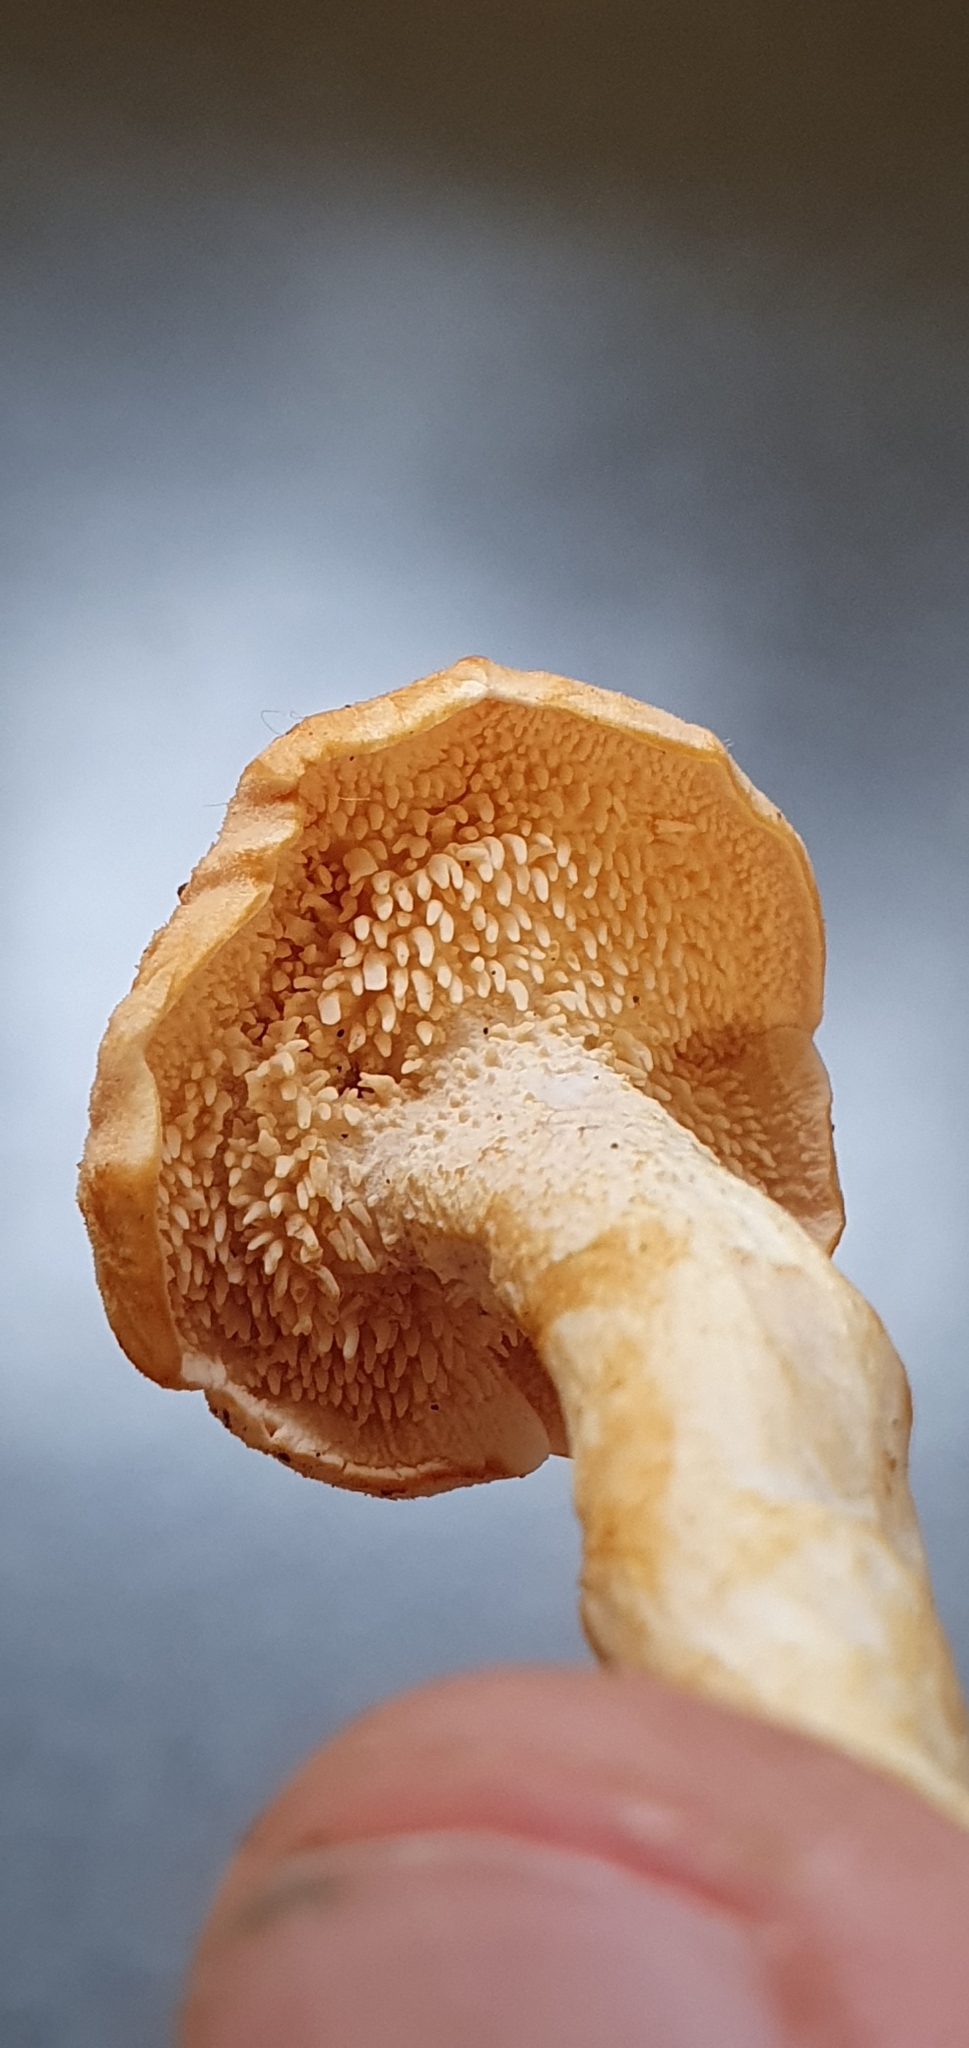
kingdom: Fungi
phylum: Basidiomycota
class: Agaricomycetes
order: Cantharellales
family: Hydnaceae
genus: Hydnum
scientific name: Hydnum rufescens
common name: Terracotta hedgehog
